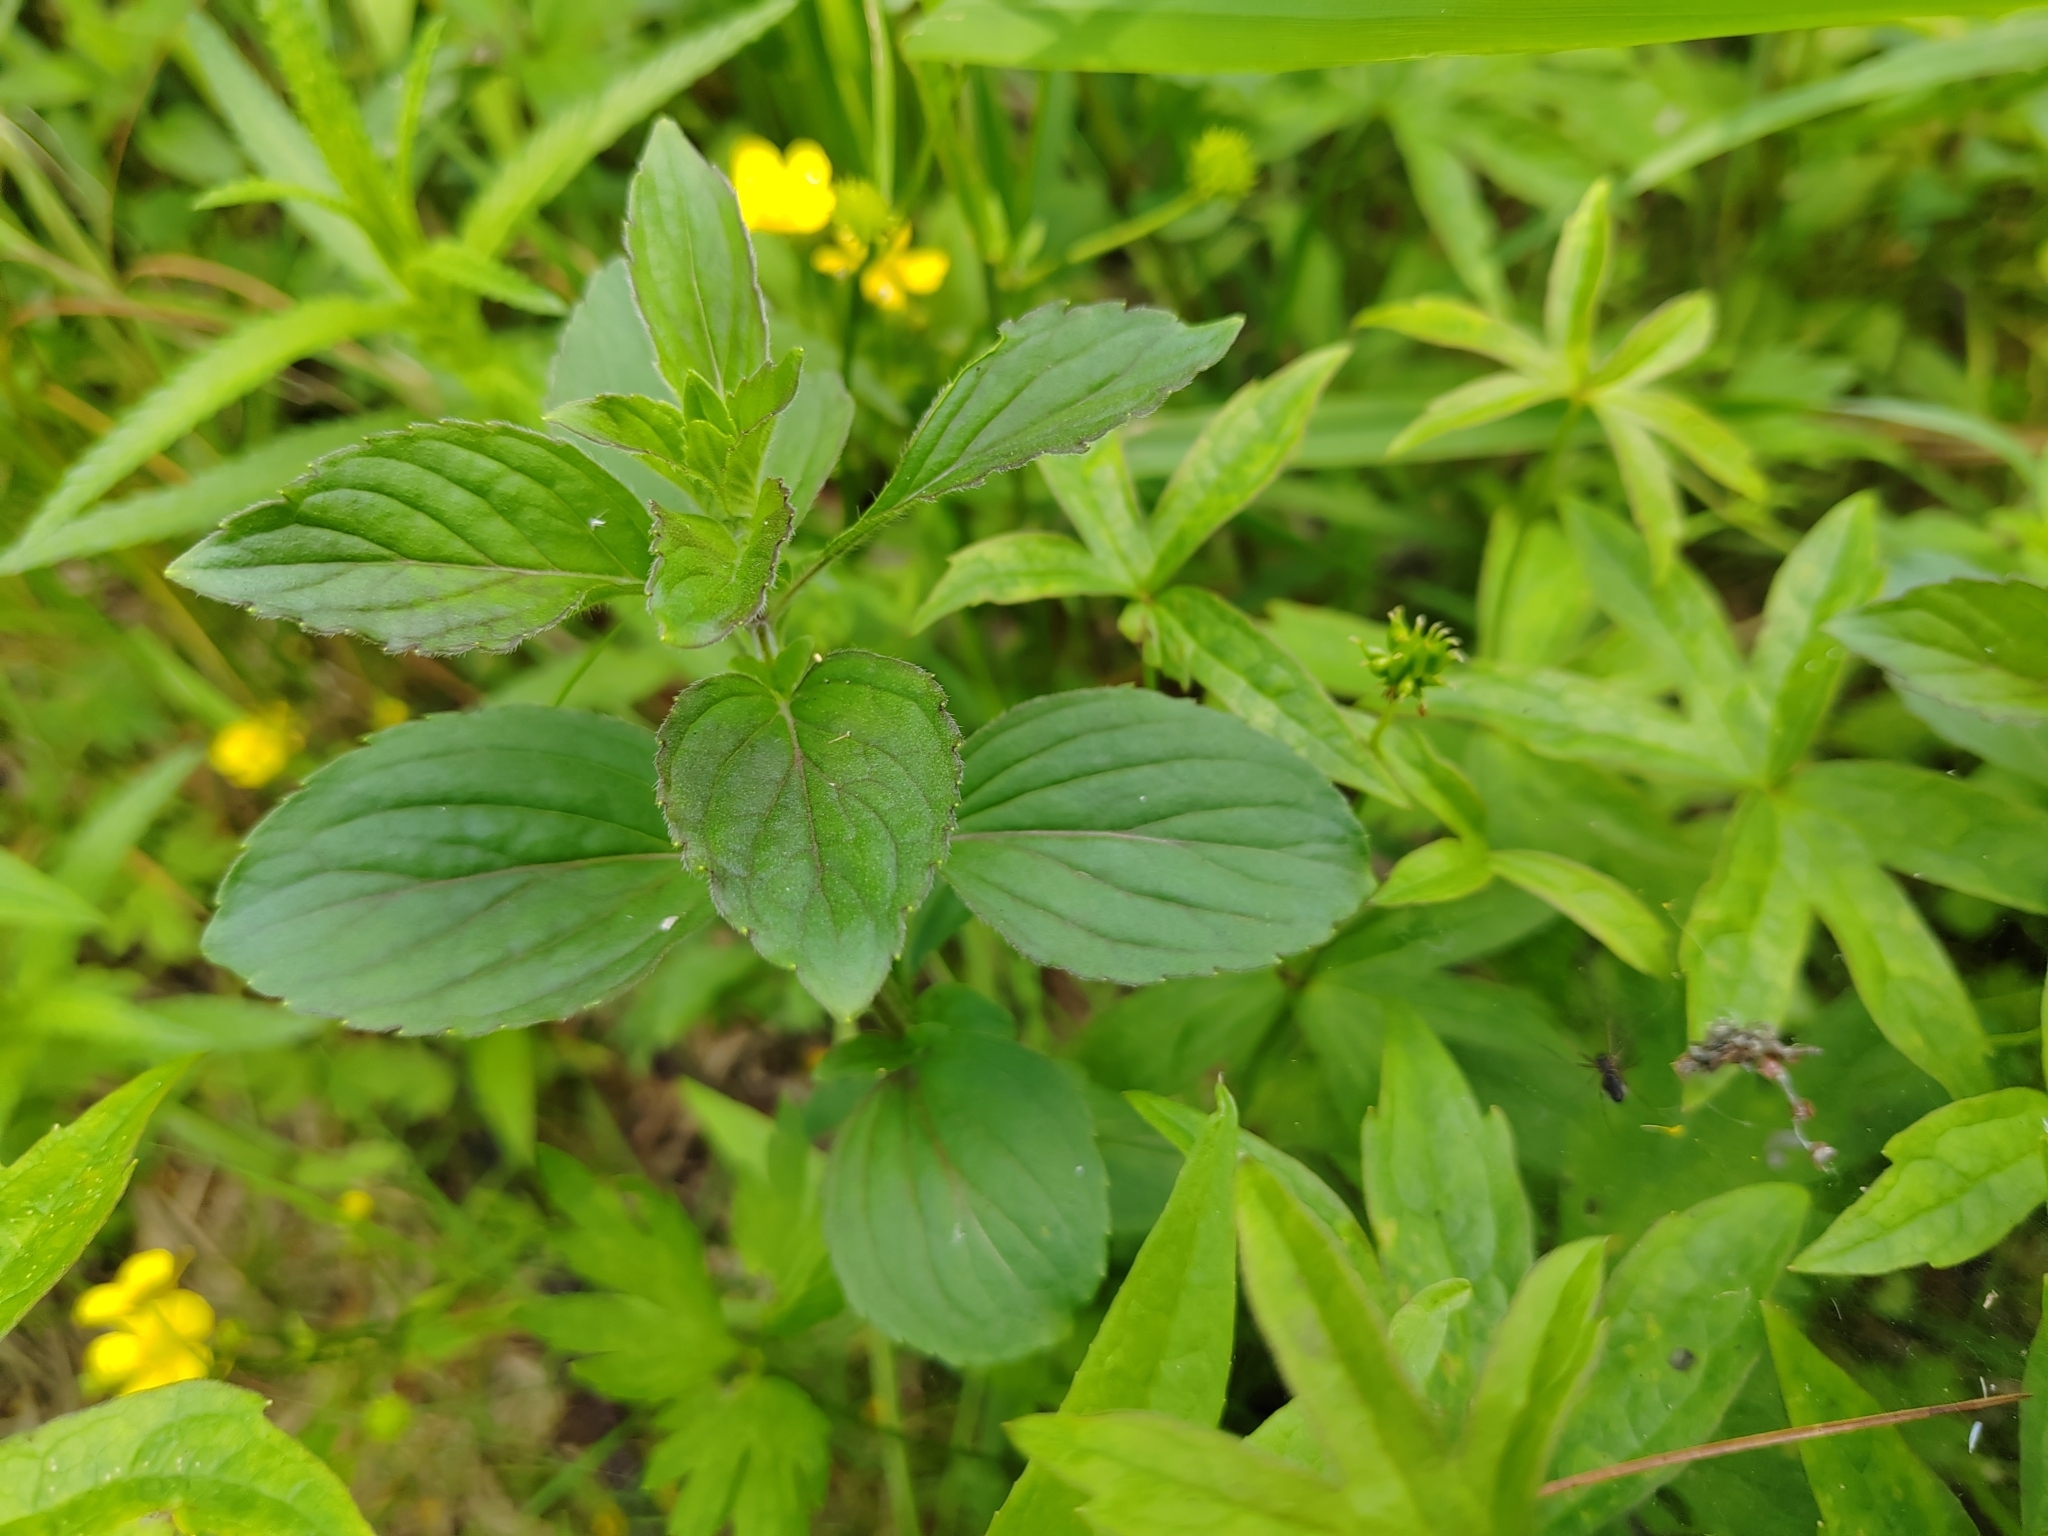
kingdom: Plantae
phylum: Tracheophyta
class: Magnoliopsida
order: Lamiales
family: Lamiaceae
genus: Mentha
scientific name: Mentha arvensis
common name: Corn mint
